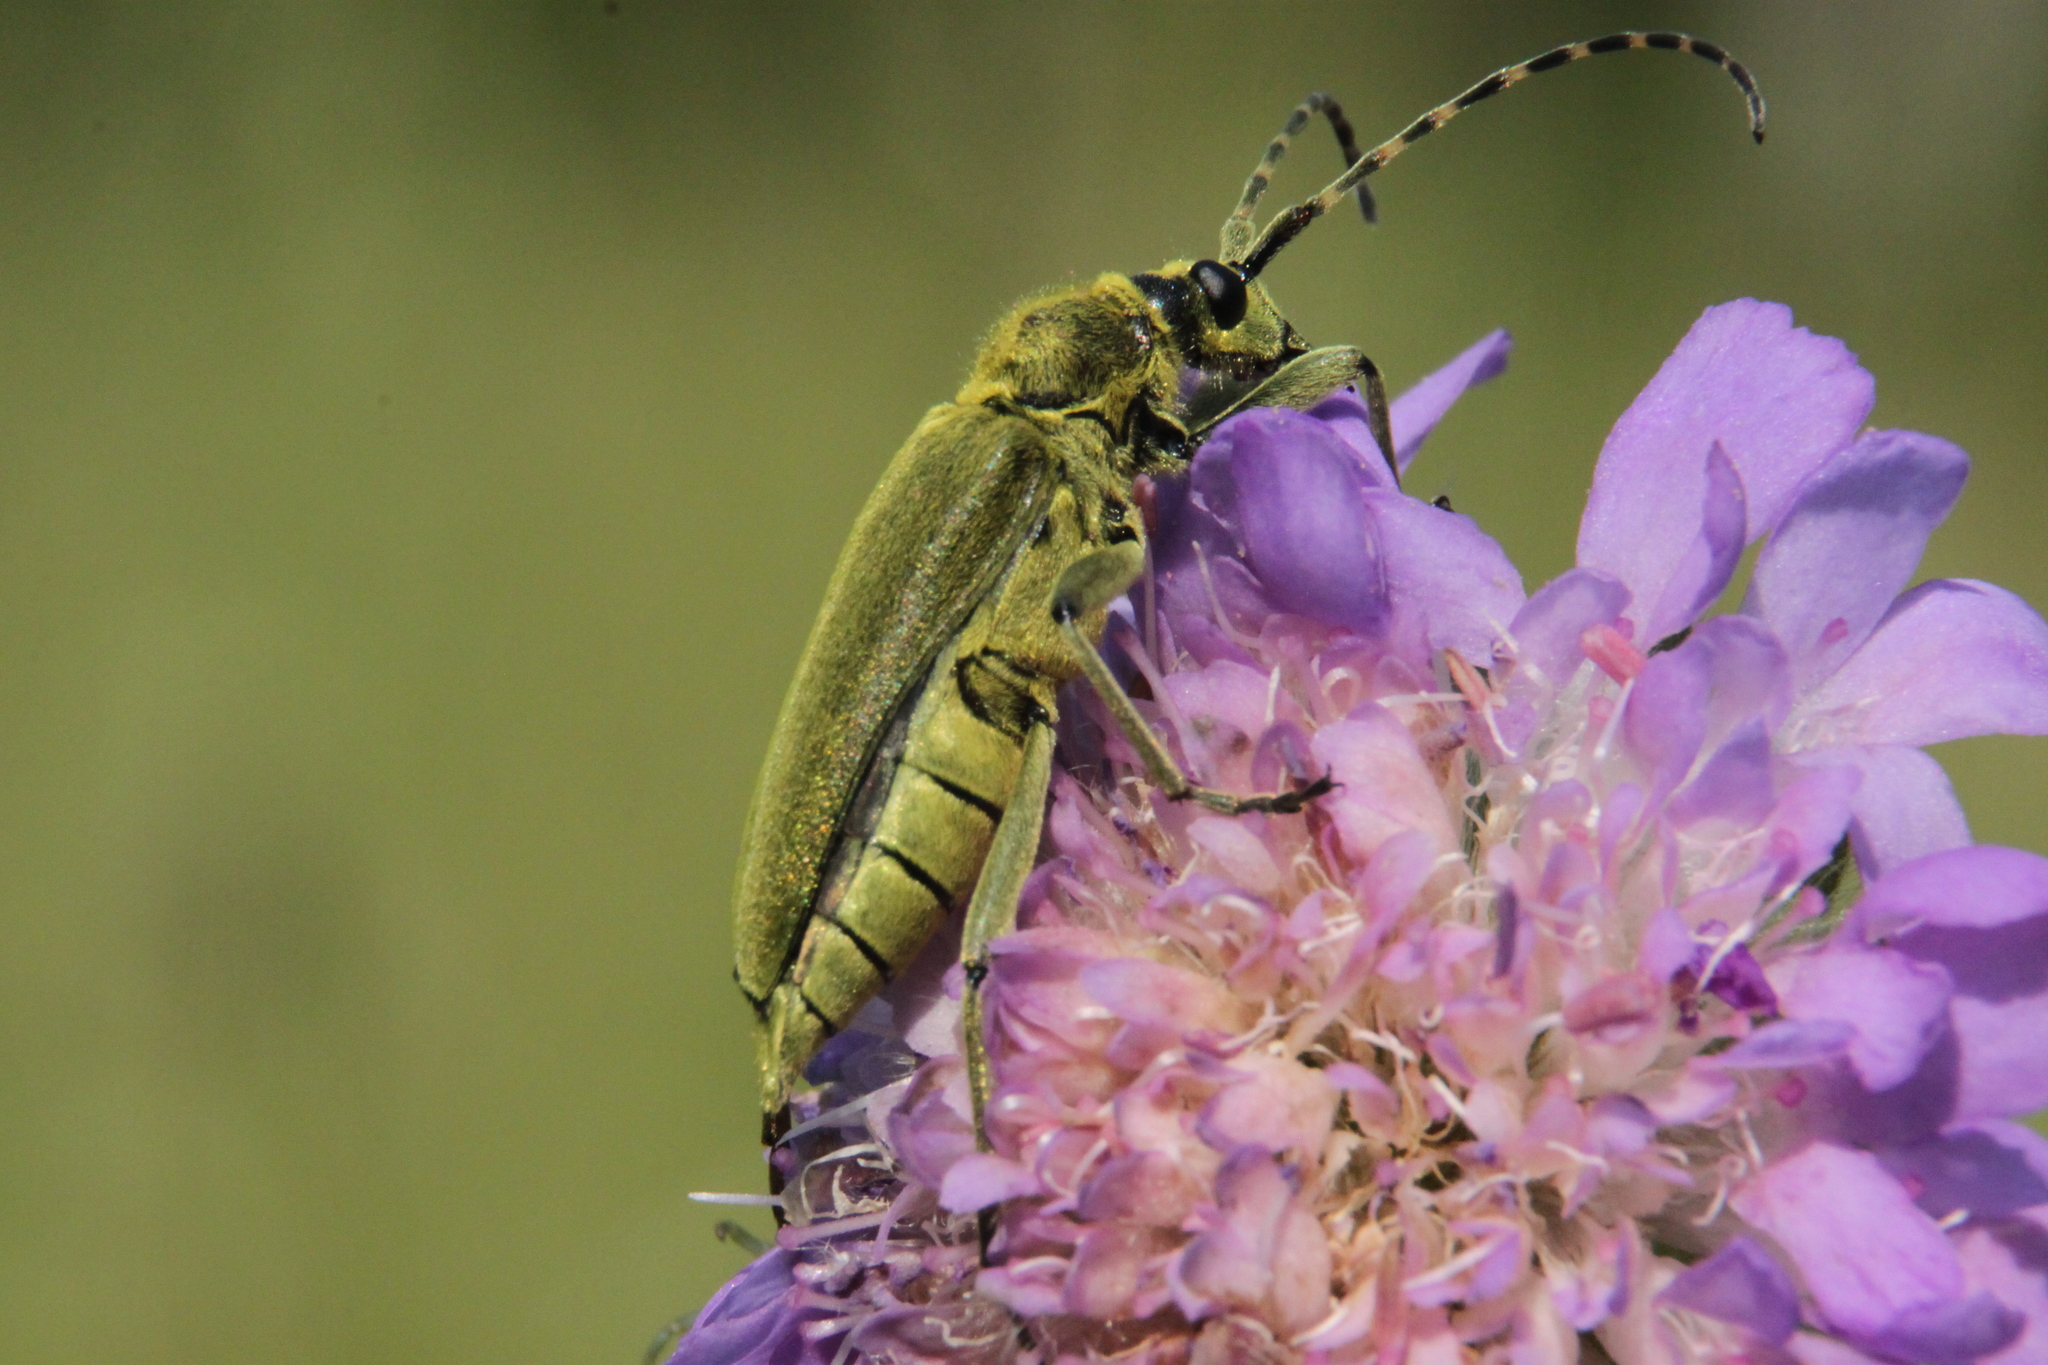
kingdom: Animalia
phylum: Arthropoda
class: Insecta
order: Coleoptera
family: Cerambycidae
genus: Lepturobosca
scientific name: Lepturobosca virens
